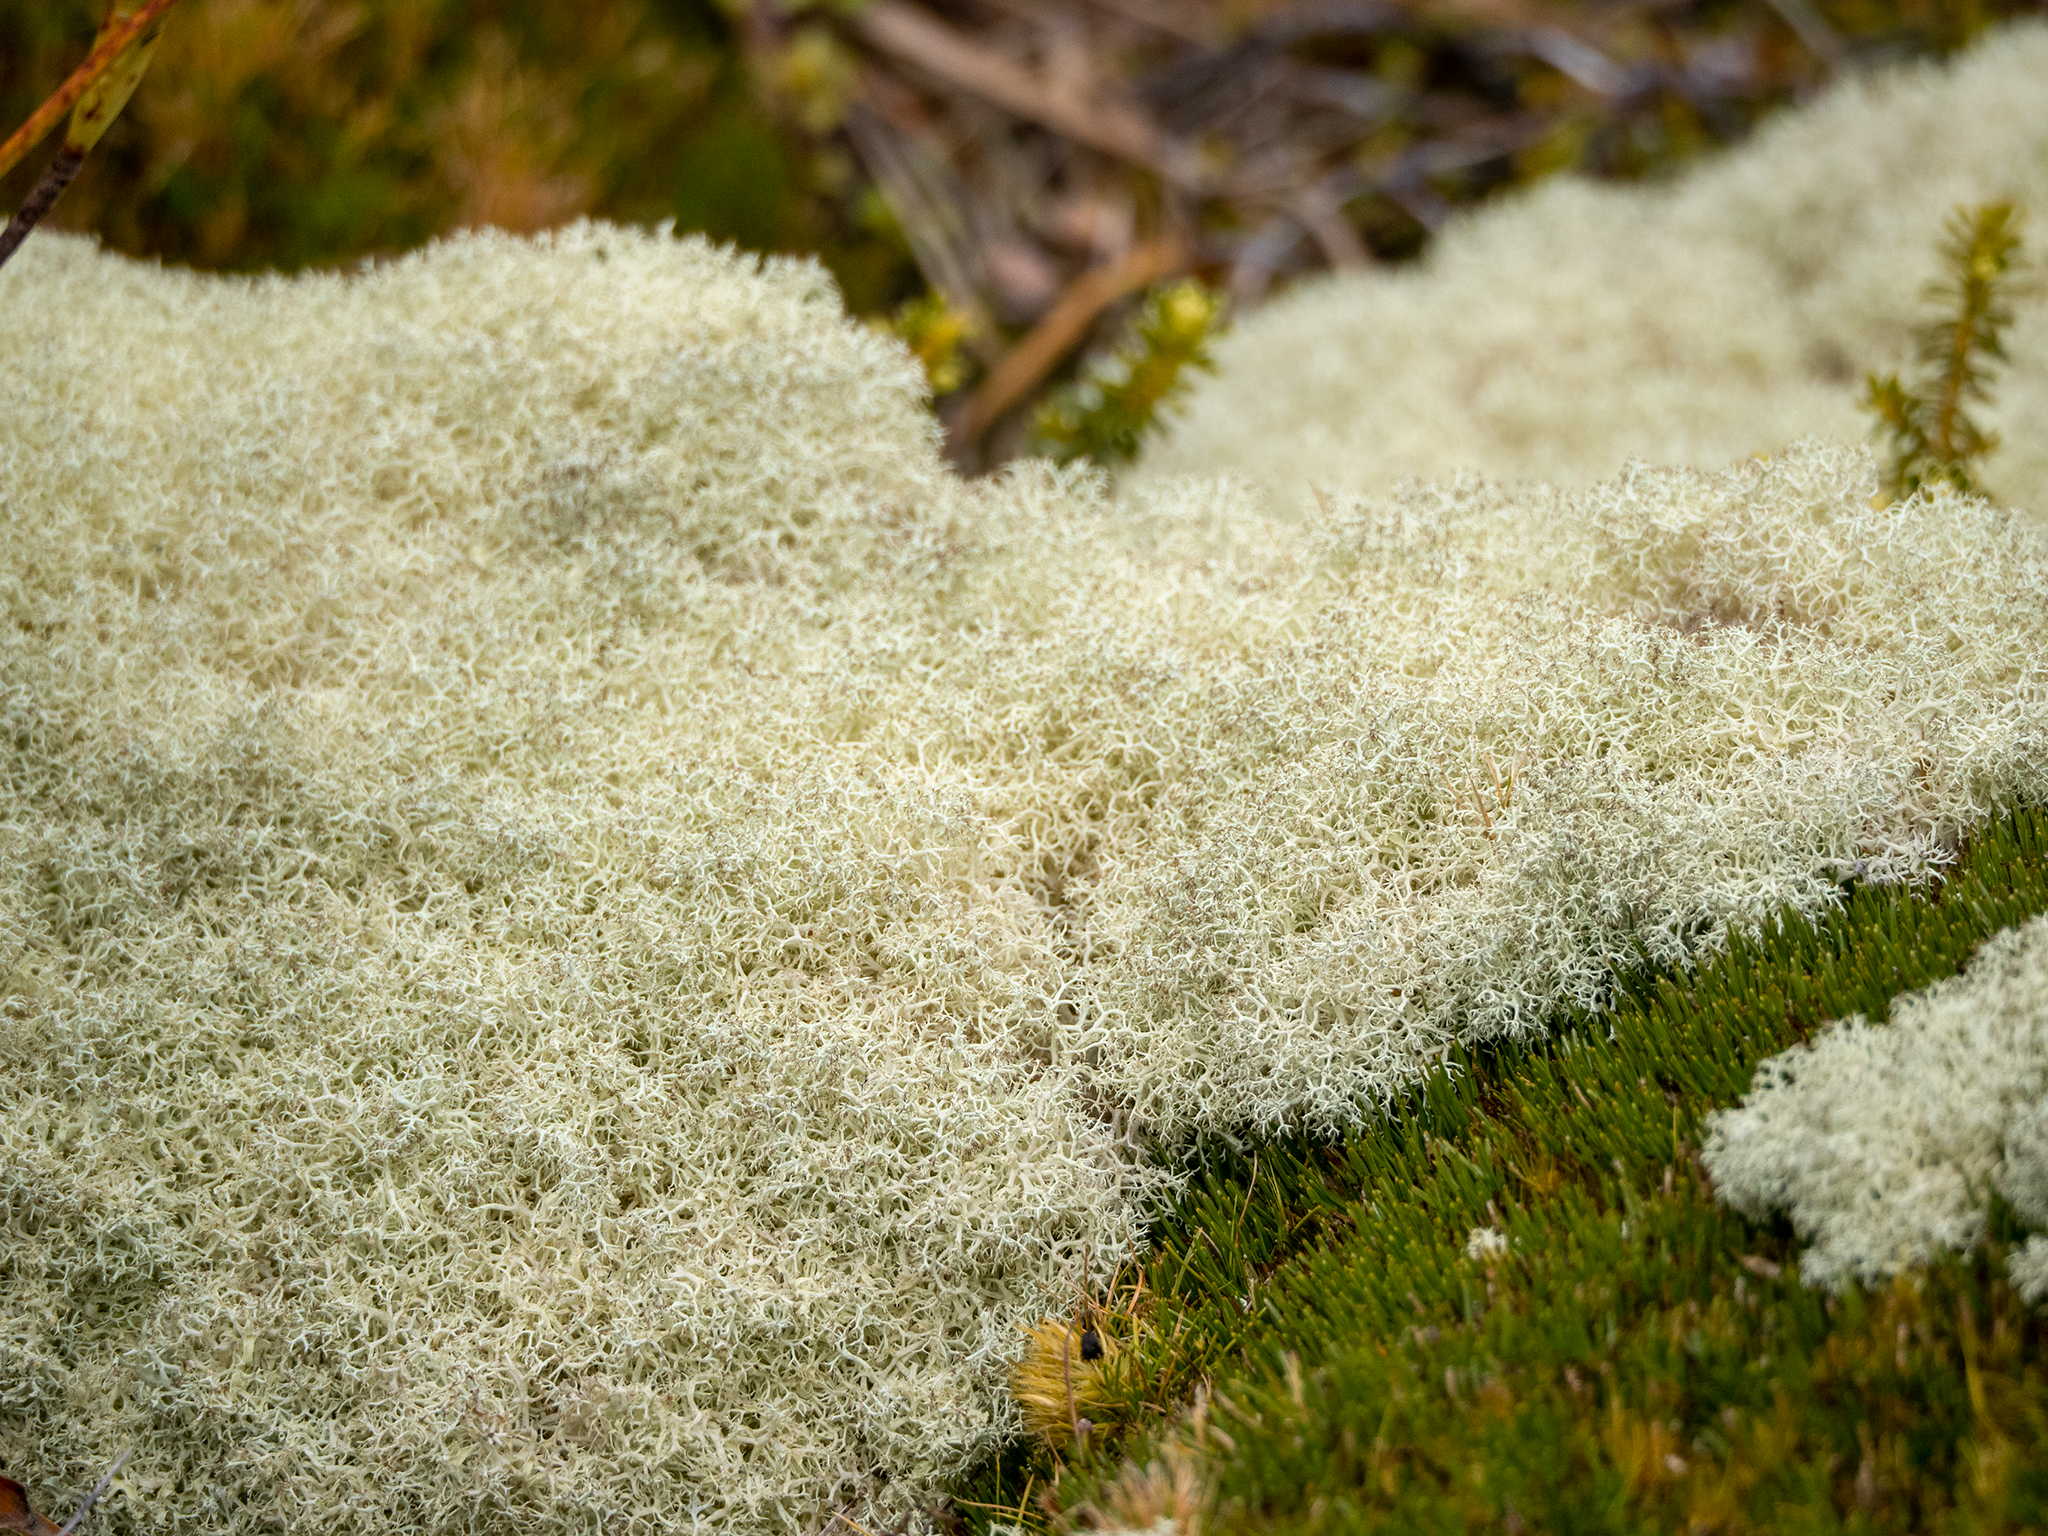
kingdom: Fungi
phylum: Ascomycota
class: Lecanoromycetes
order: Lecanorales
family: Cladoniaceae
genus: Cladonia
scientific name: Cladonia confusa
